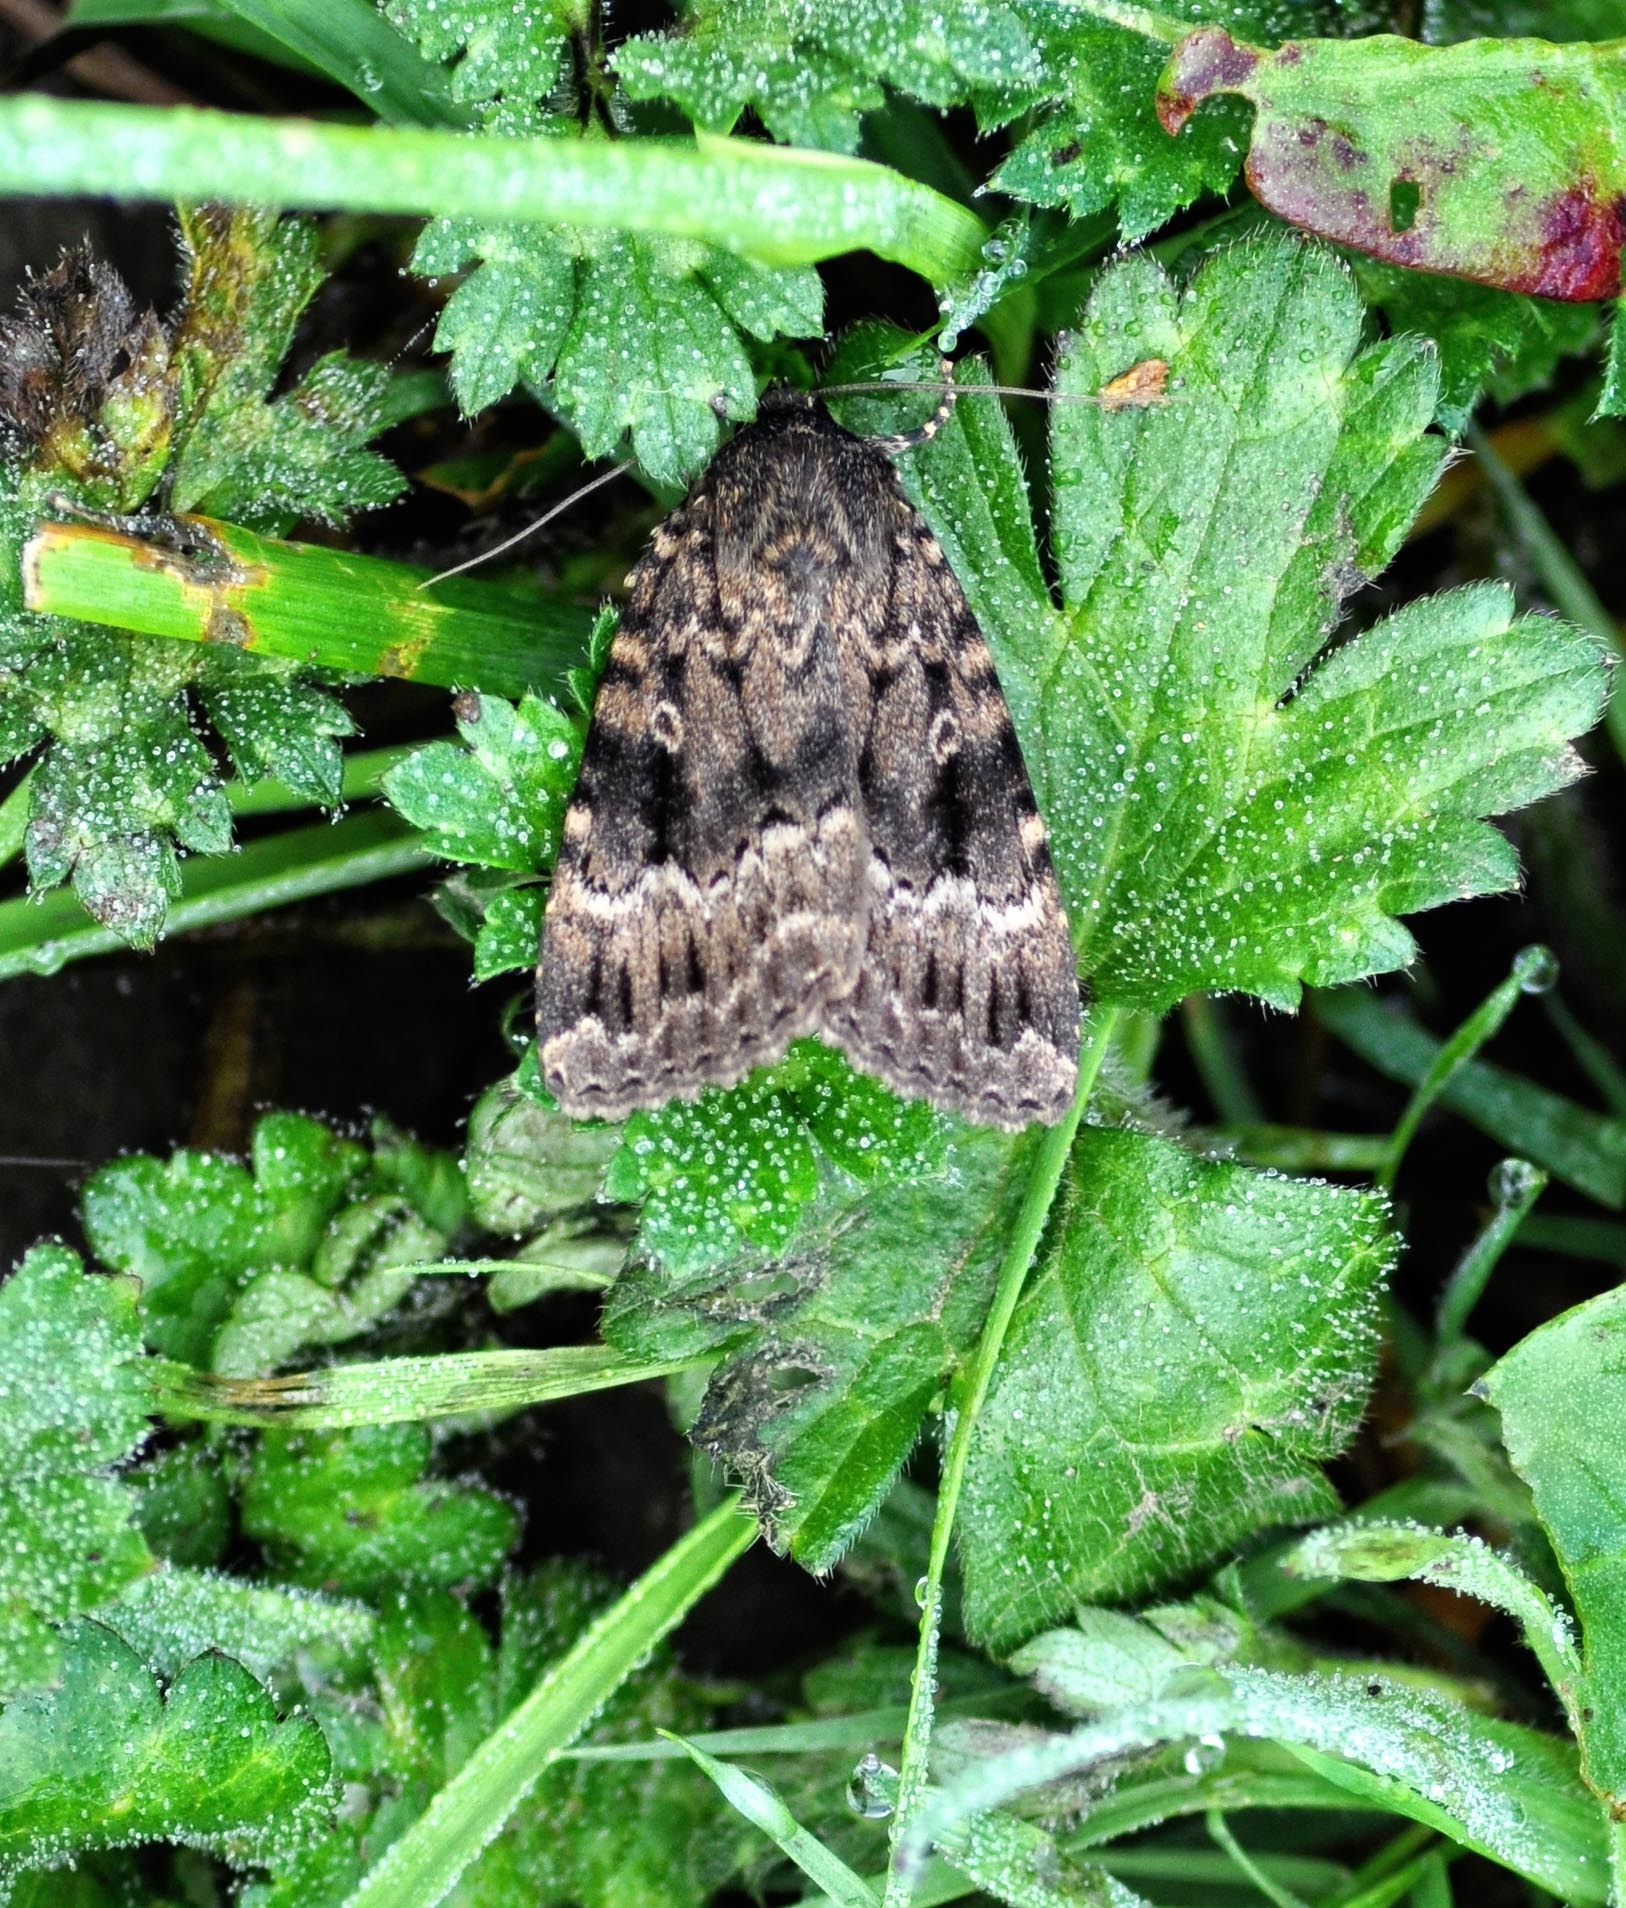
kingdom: Animalia
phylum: Arthropoda
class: Insecta
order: Lepidoptera
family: Noctuidae
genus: Amphipyra
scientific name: Amphipyra berbera
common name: Svensson's copper underwing
